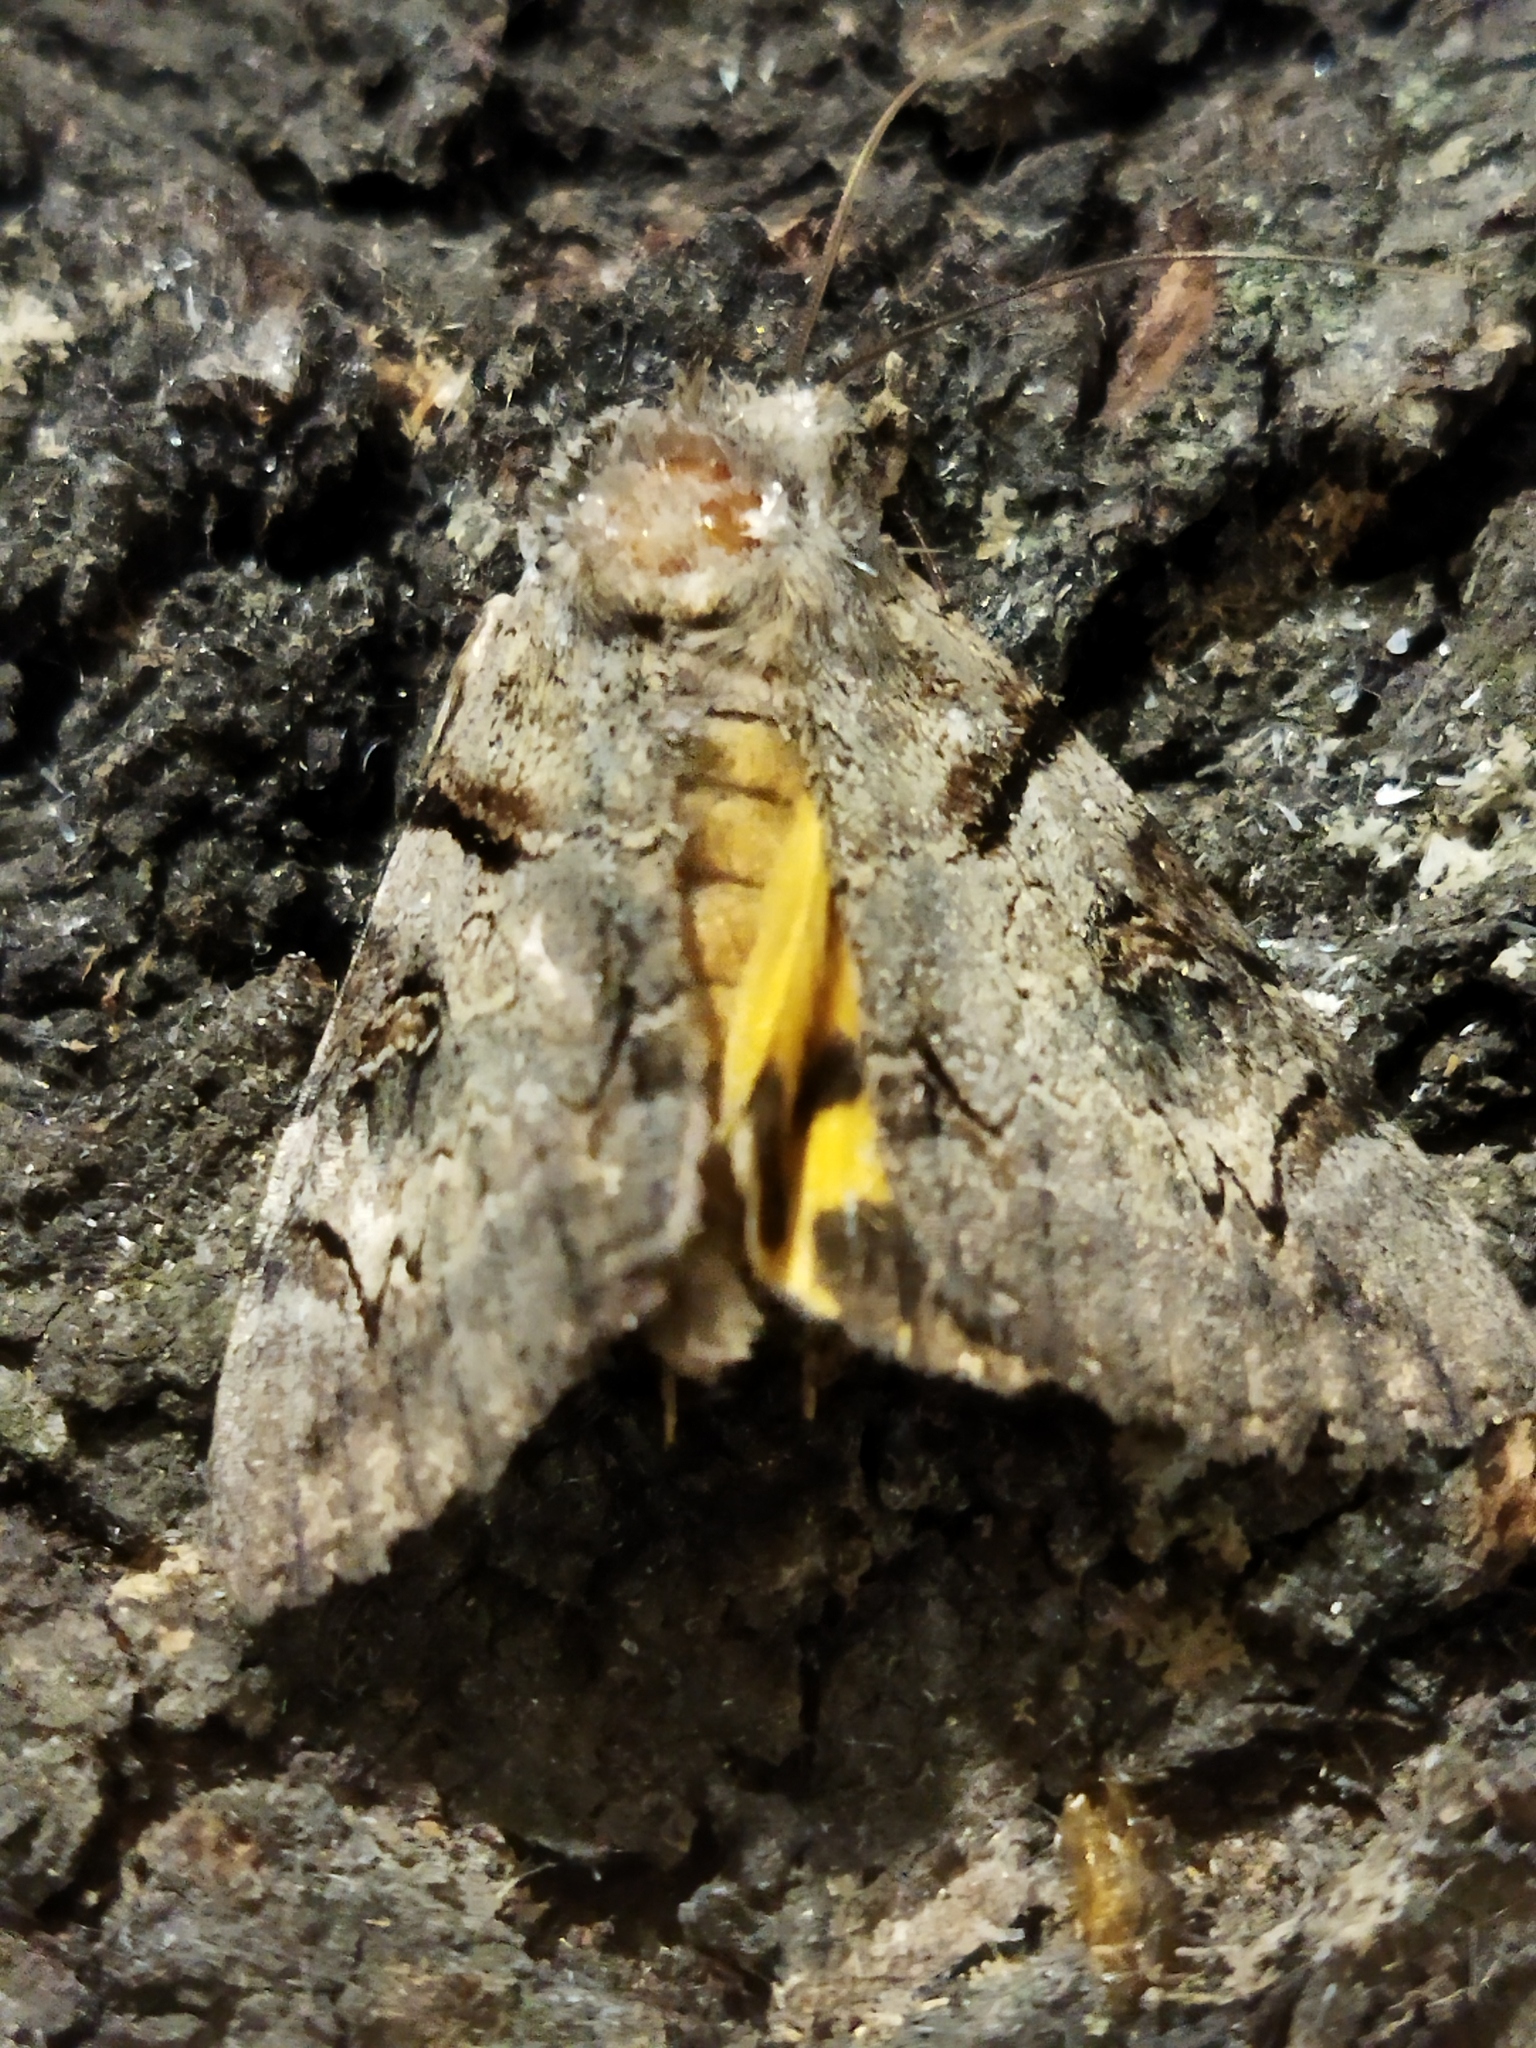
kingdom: Animalia
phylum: Arthropoda
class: Insecta
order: Lepidoptera
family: Erebidae
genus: Catocala
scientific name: Catocala hymenaea
